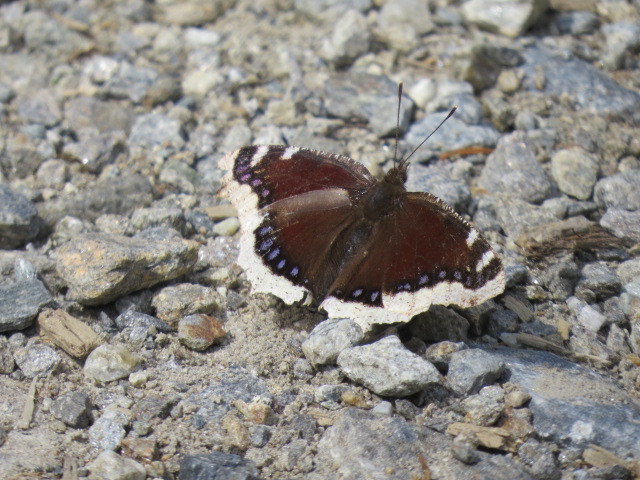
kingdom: Animalia
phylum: Arthropoda
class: Insecta
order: Lepidoptera
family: Nymphalidae
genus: Nymphalis
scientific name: Nymphalis antiopa
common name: Camberwell beauty
